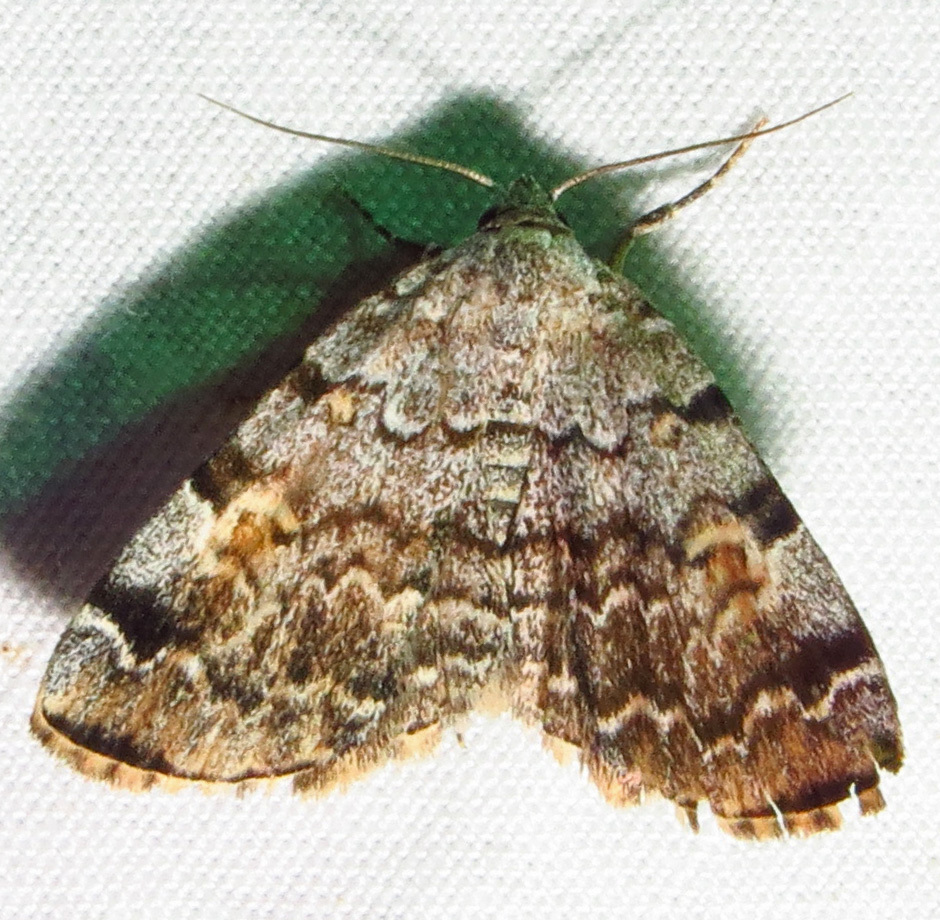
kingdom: Animalia
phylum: Arthropoda
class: Insecta
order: Lepidoptera
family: Erebidae
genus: Idia
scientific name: Idia americalis
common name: American idia moth
